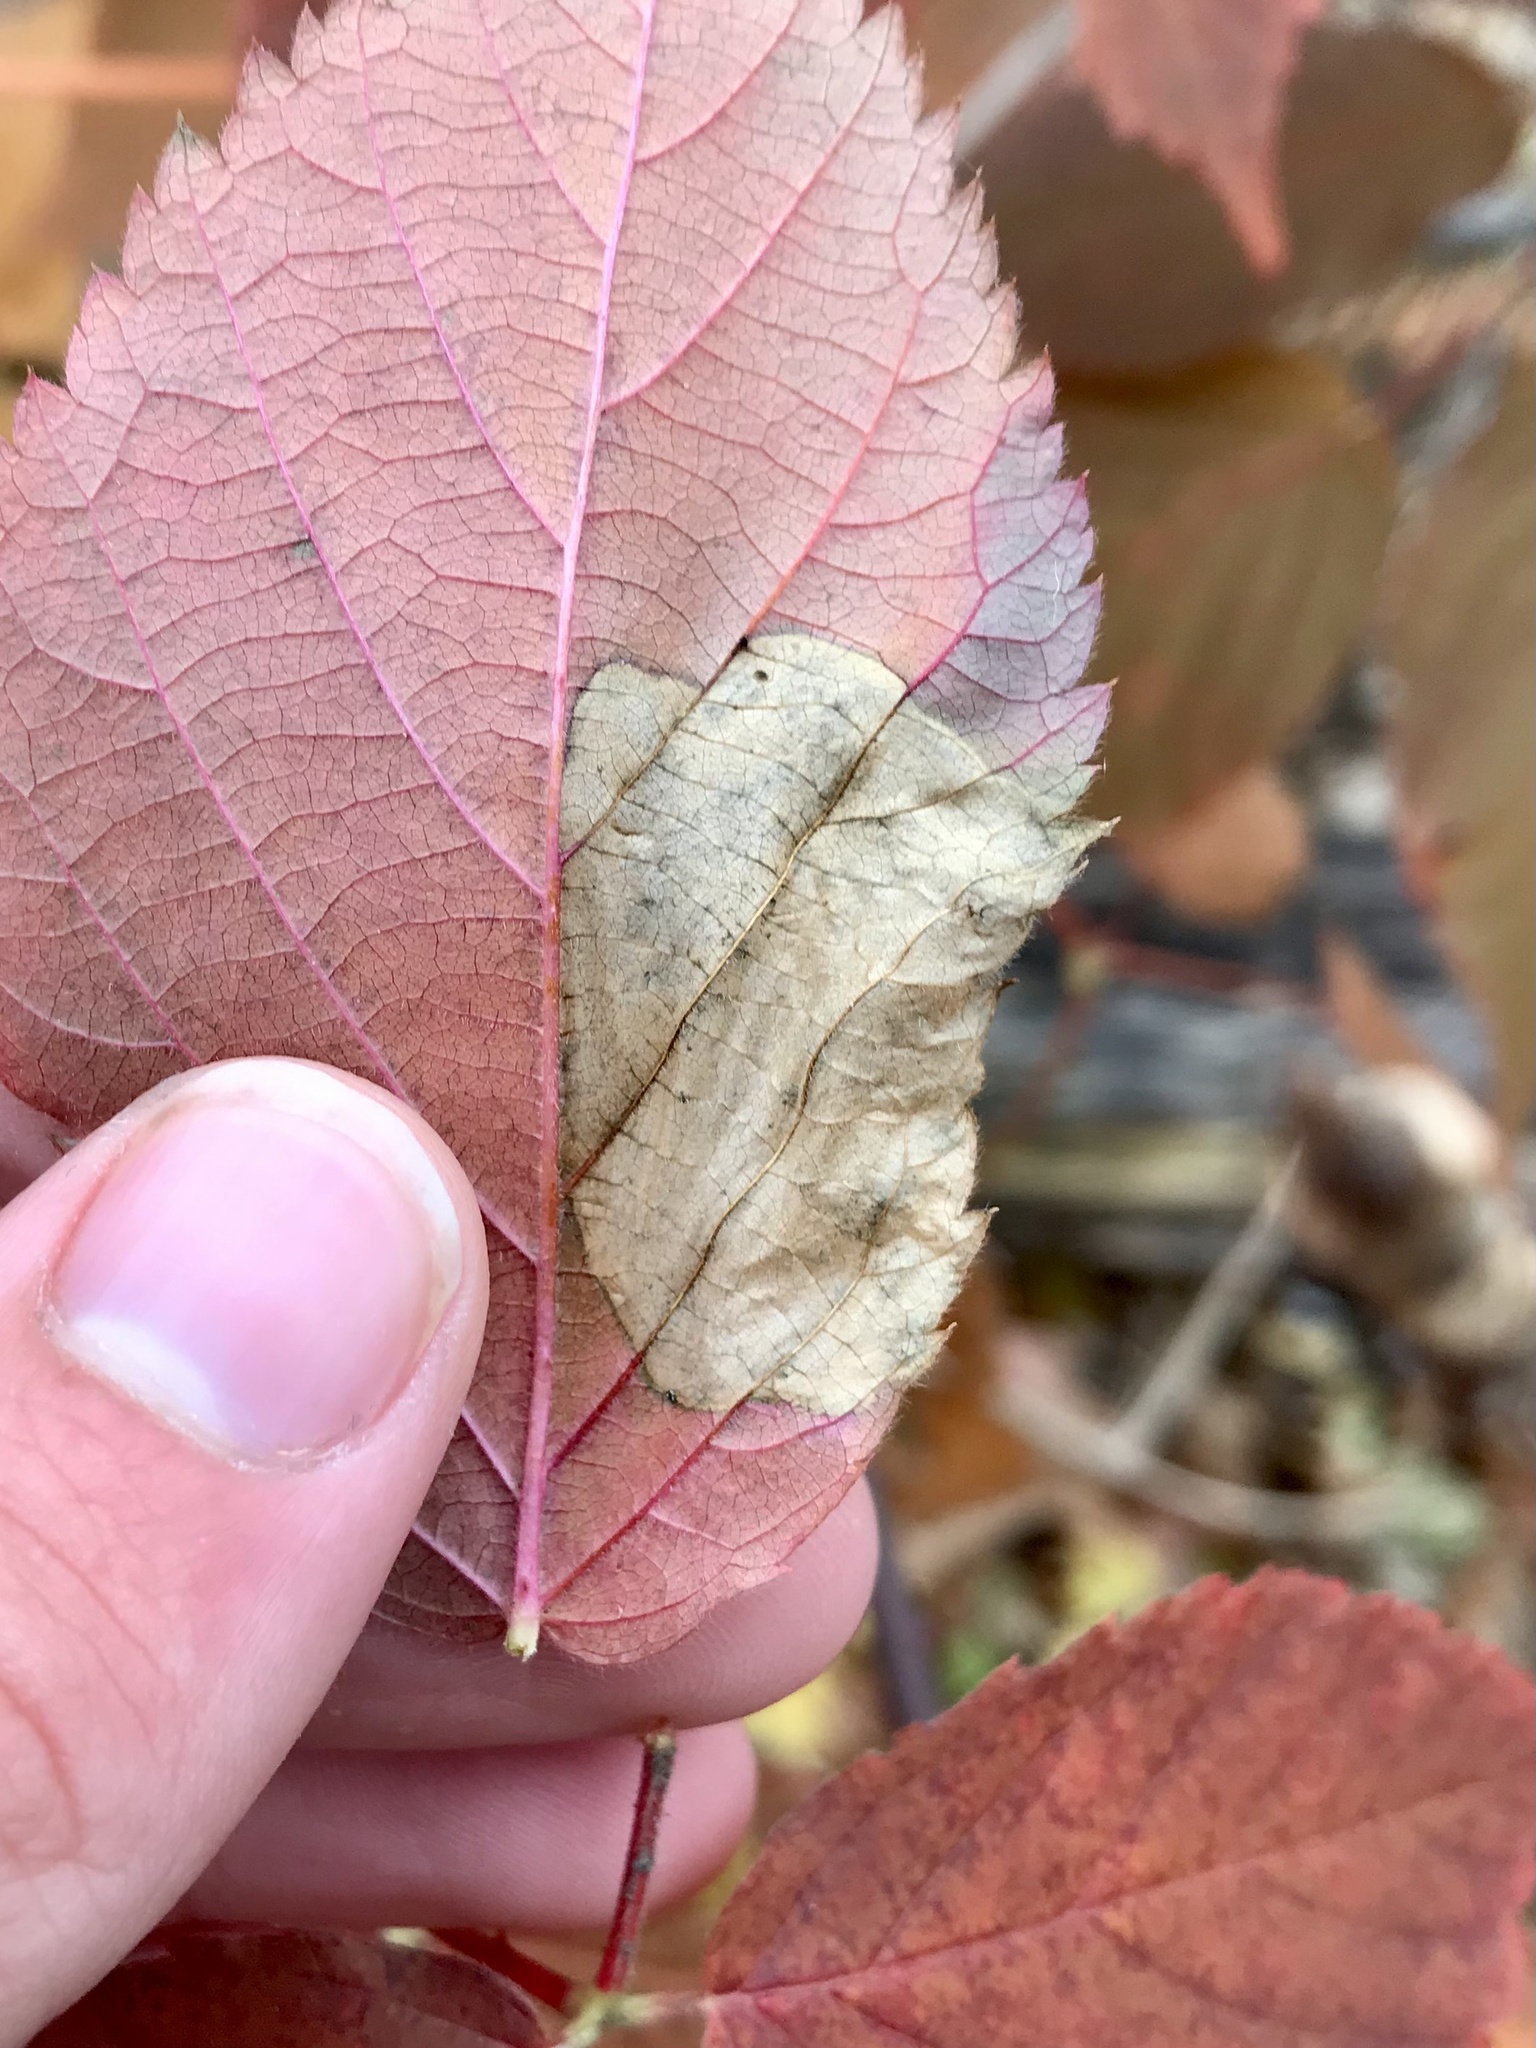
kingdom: Animalia
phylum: Arthropoda
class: Insecta
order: Hymenoptera
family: Tenthredinidae
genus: Metallus
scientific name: Metallus rohweri
